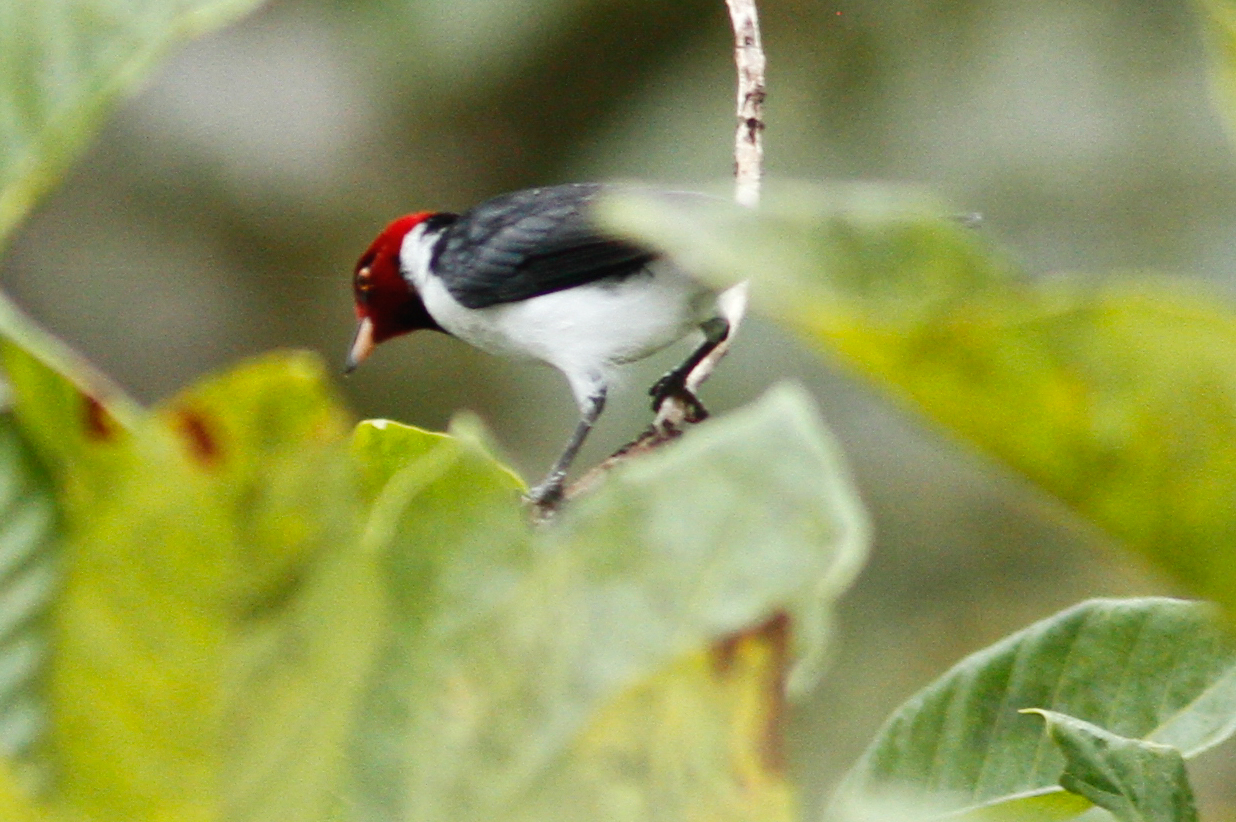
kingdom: Animalia
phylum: Chordata
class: Aves
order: Passeriformes
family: Thraupidae
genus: Paroaria
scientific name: Paroaria gularis
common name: Red-capped cardinal
